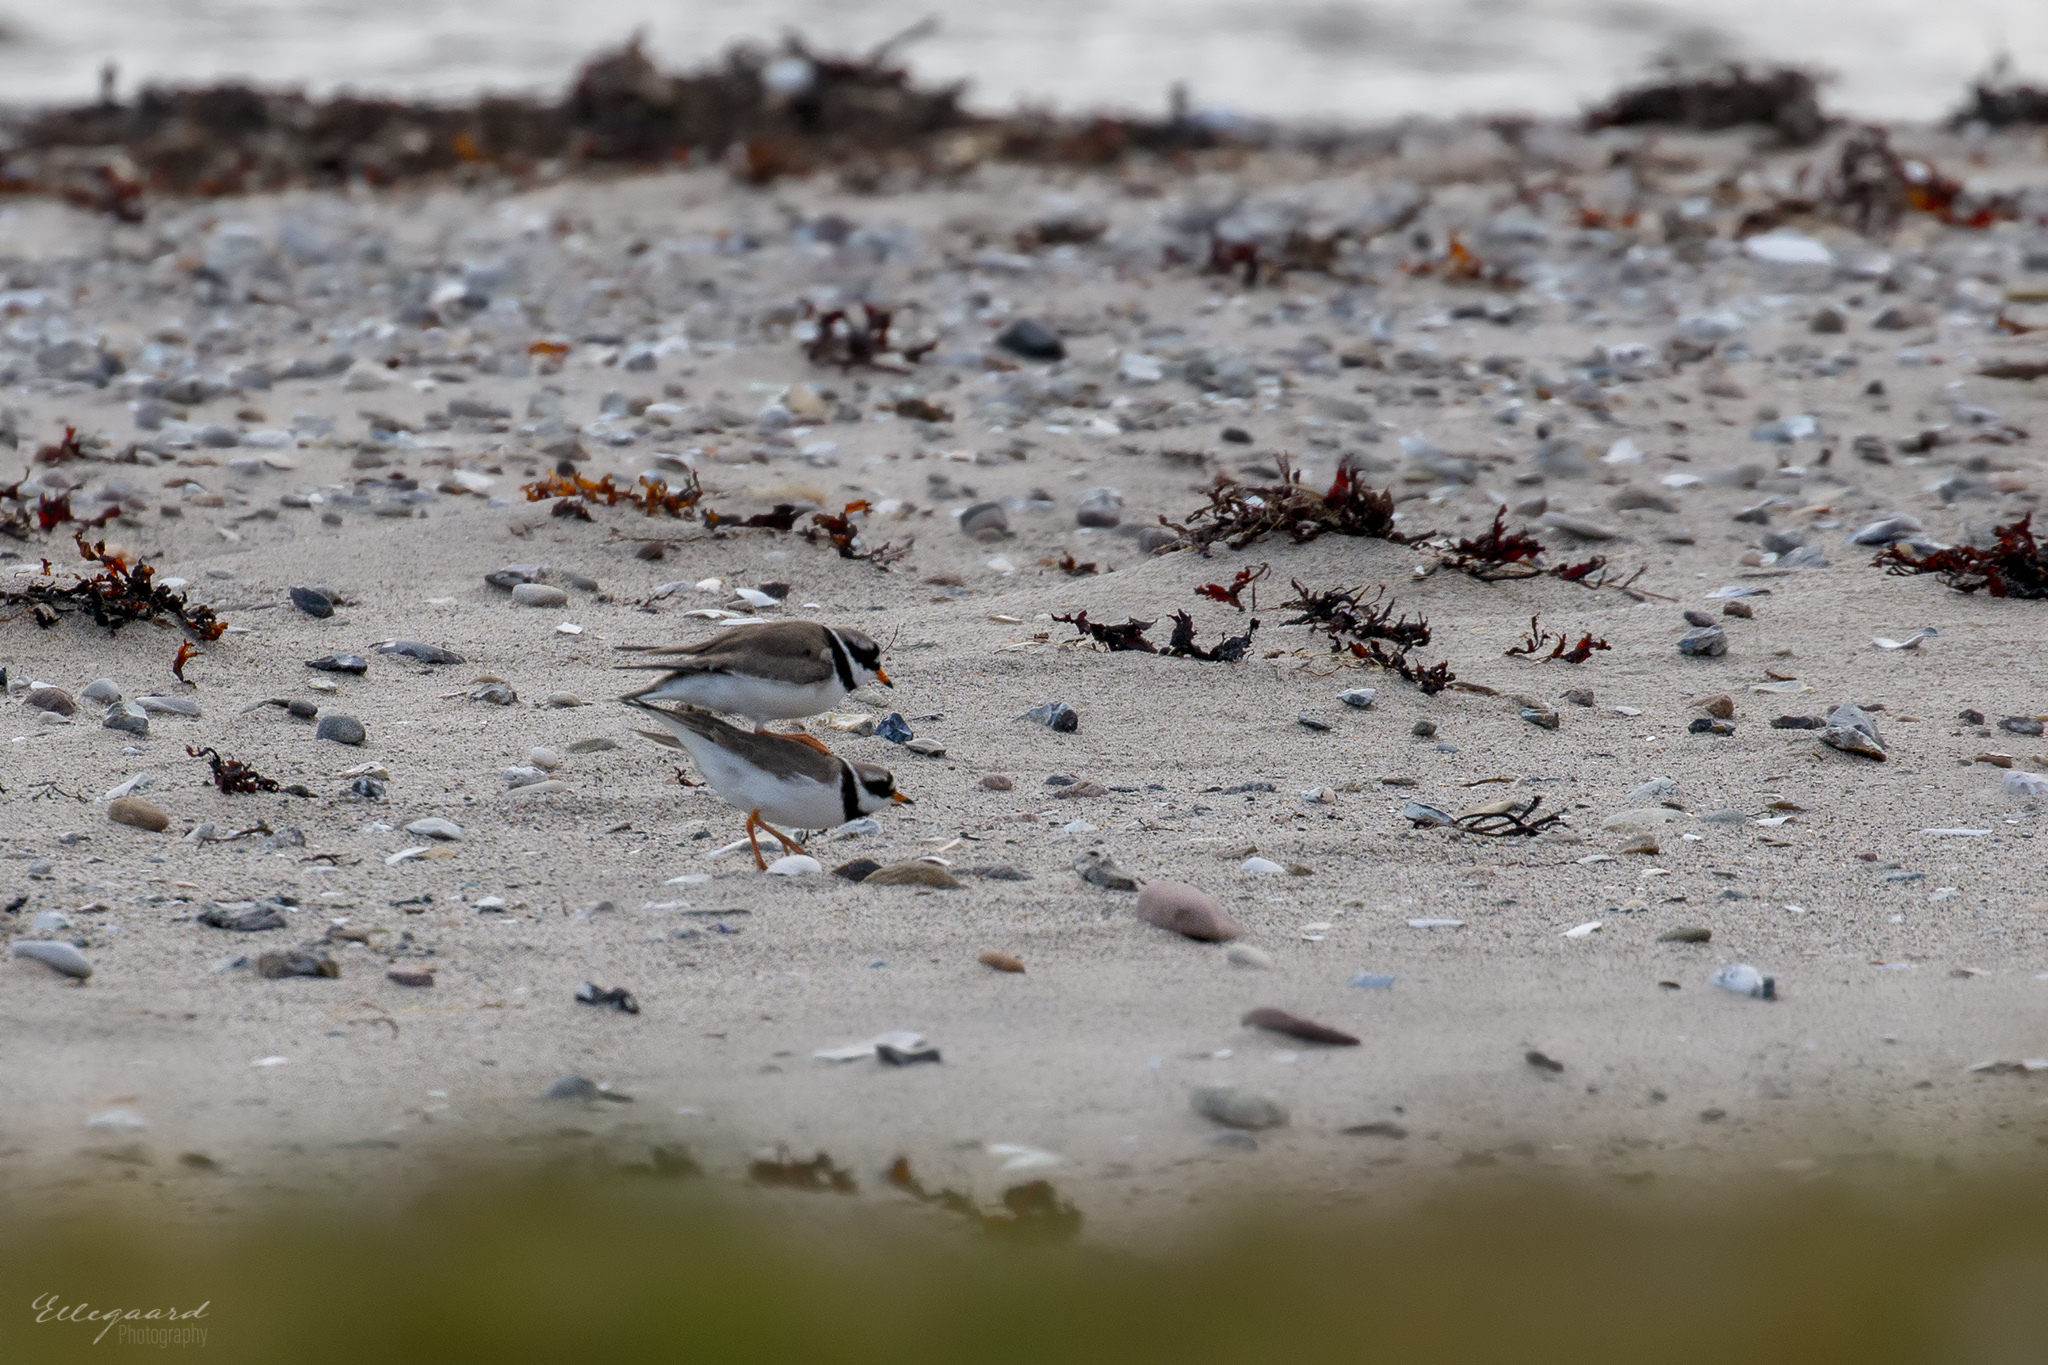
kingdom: Animalia
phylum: Chordata
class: Aves
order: Charadriiformes
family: Charadriidae
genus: Charadrius
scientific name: Charadrius hiaticula
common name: Common ringed plover
